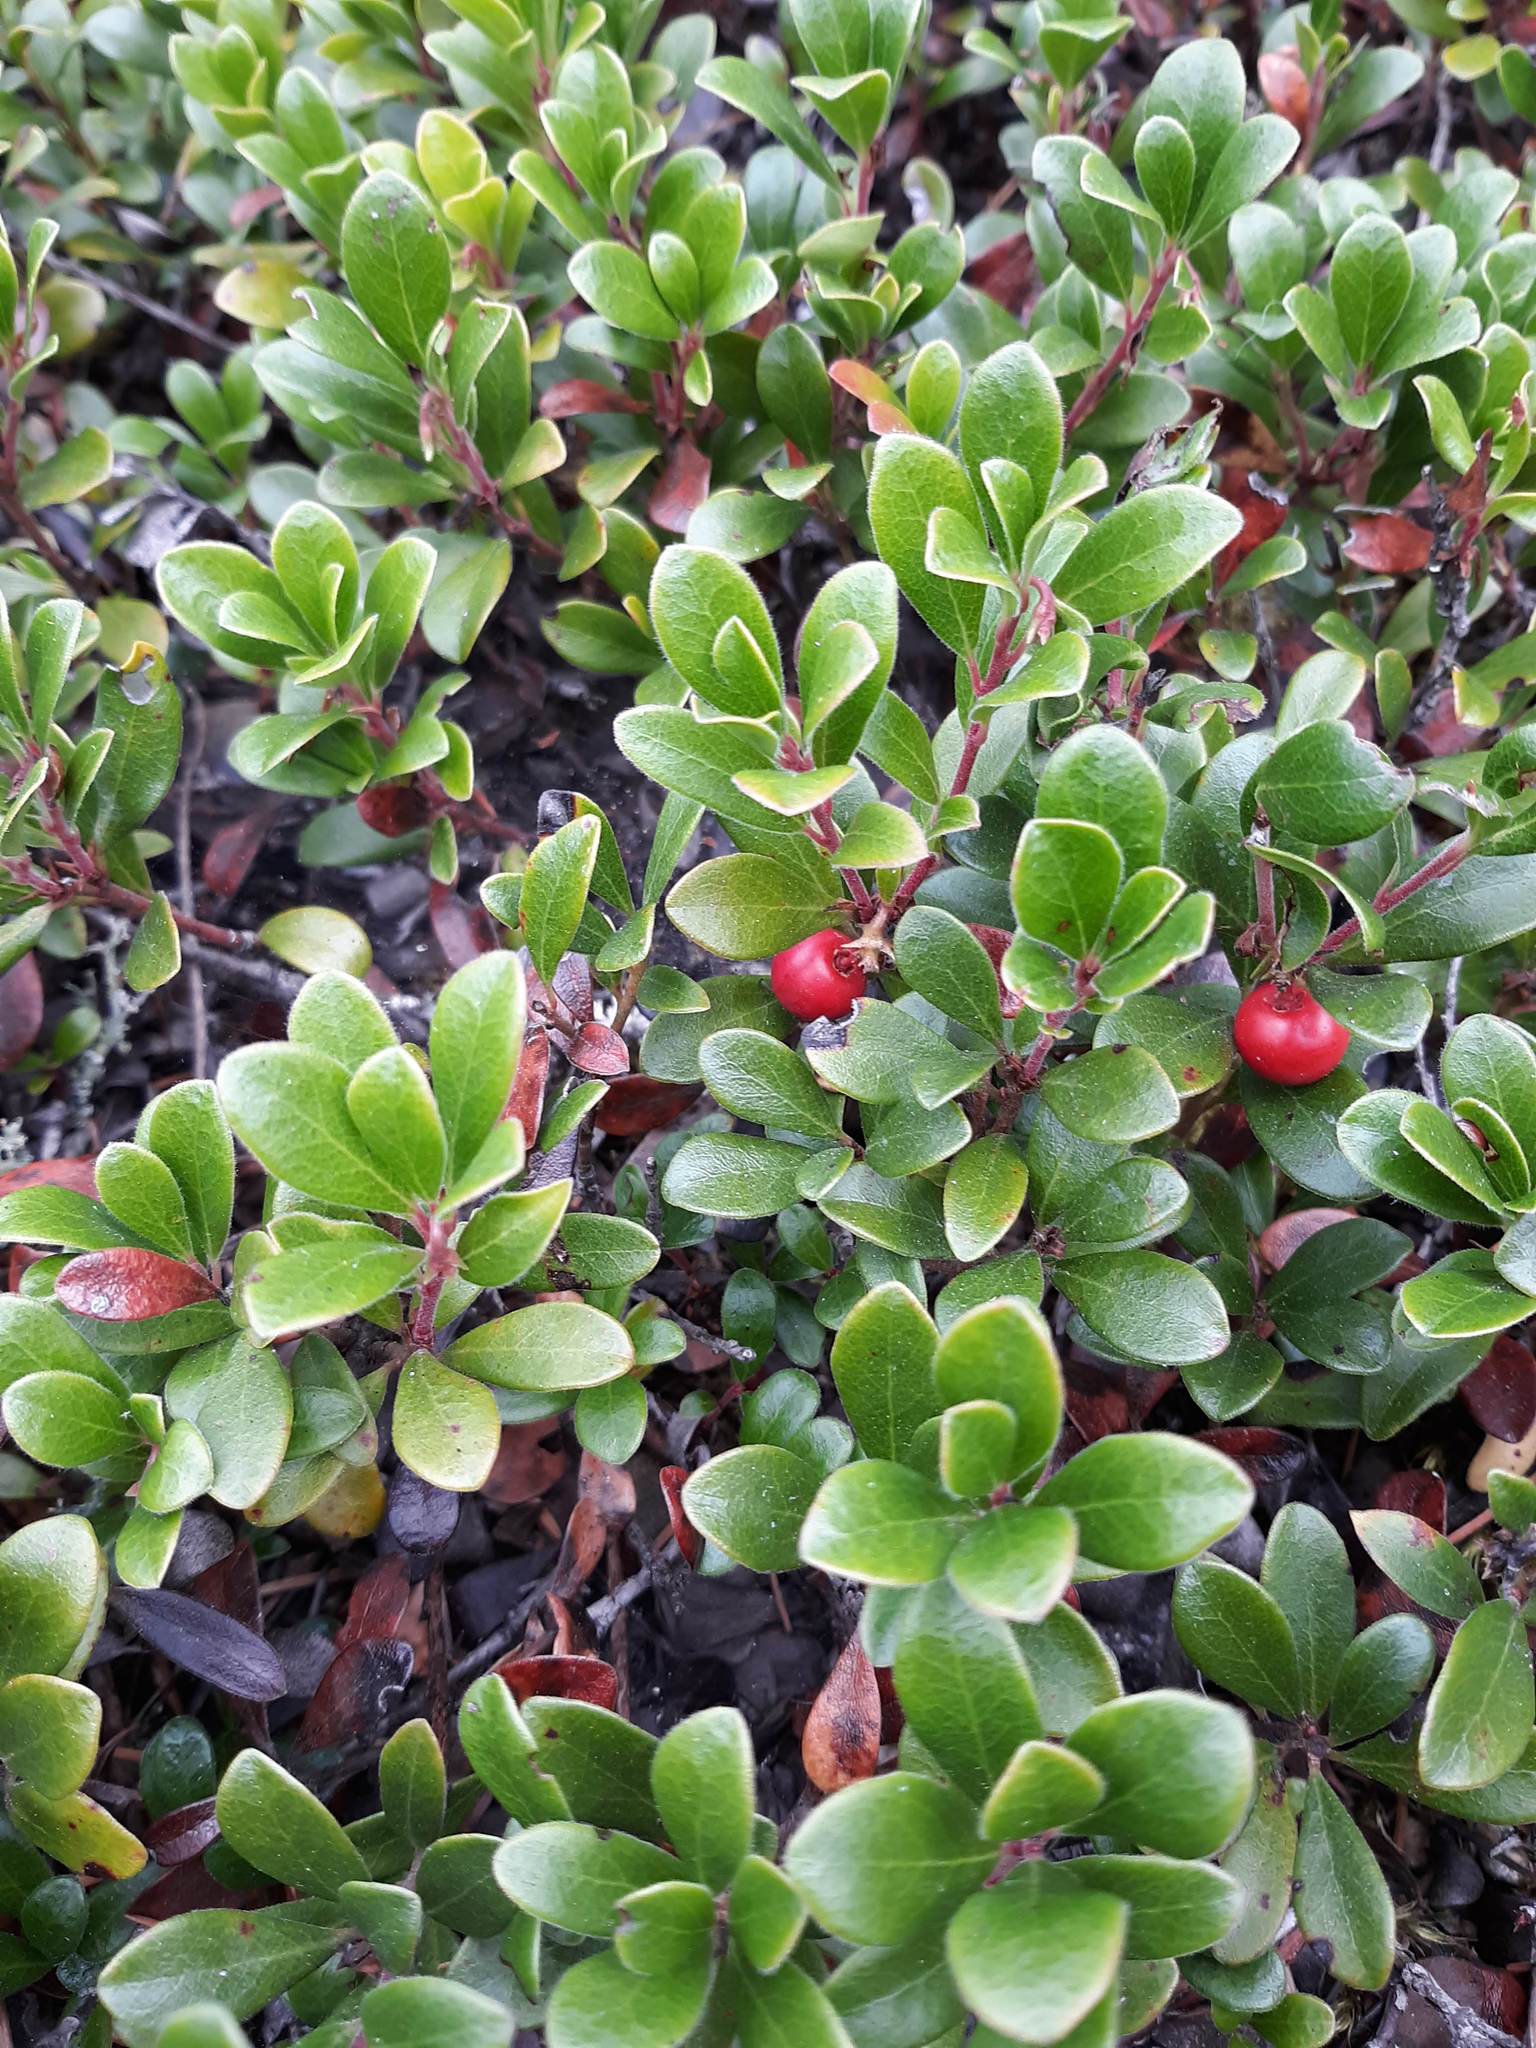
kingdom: Plantae
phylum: Tracheophyta
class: Magnoliopsida
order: Ericales
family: Ericaceae
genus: Arctostaphylos
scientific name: Arctostaphylos uva-ursi
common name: Bearberry
